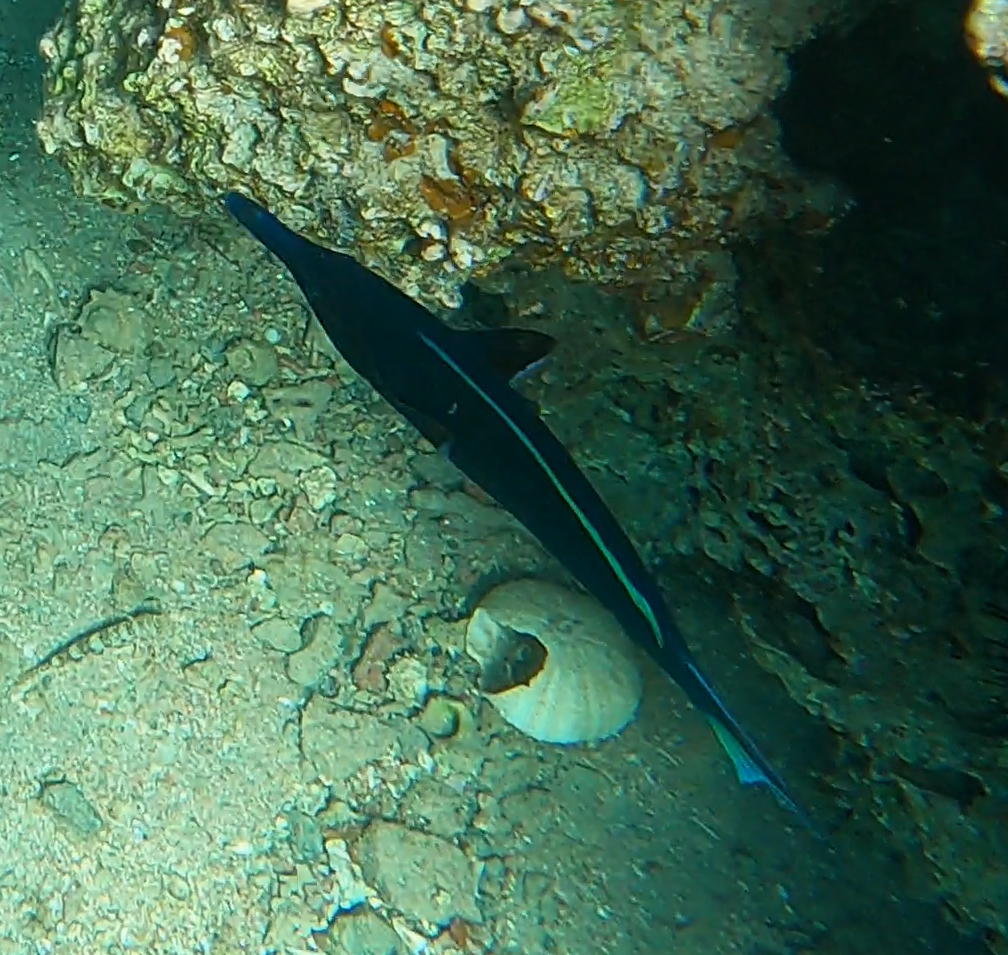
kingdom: Animalia
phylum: Chordata
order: Perciformes
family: Labridae
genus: Gomphosus
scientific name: Gomphosus klunzingeri
